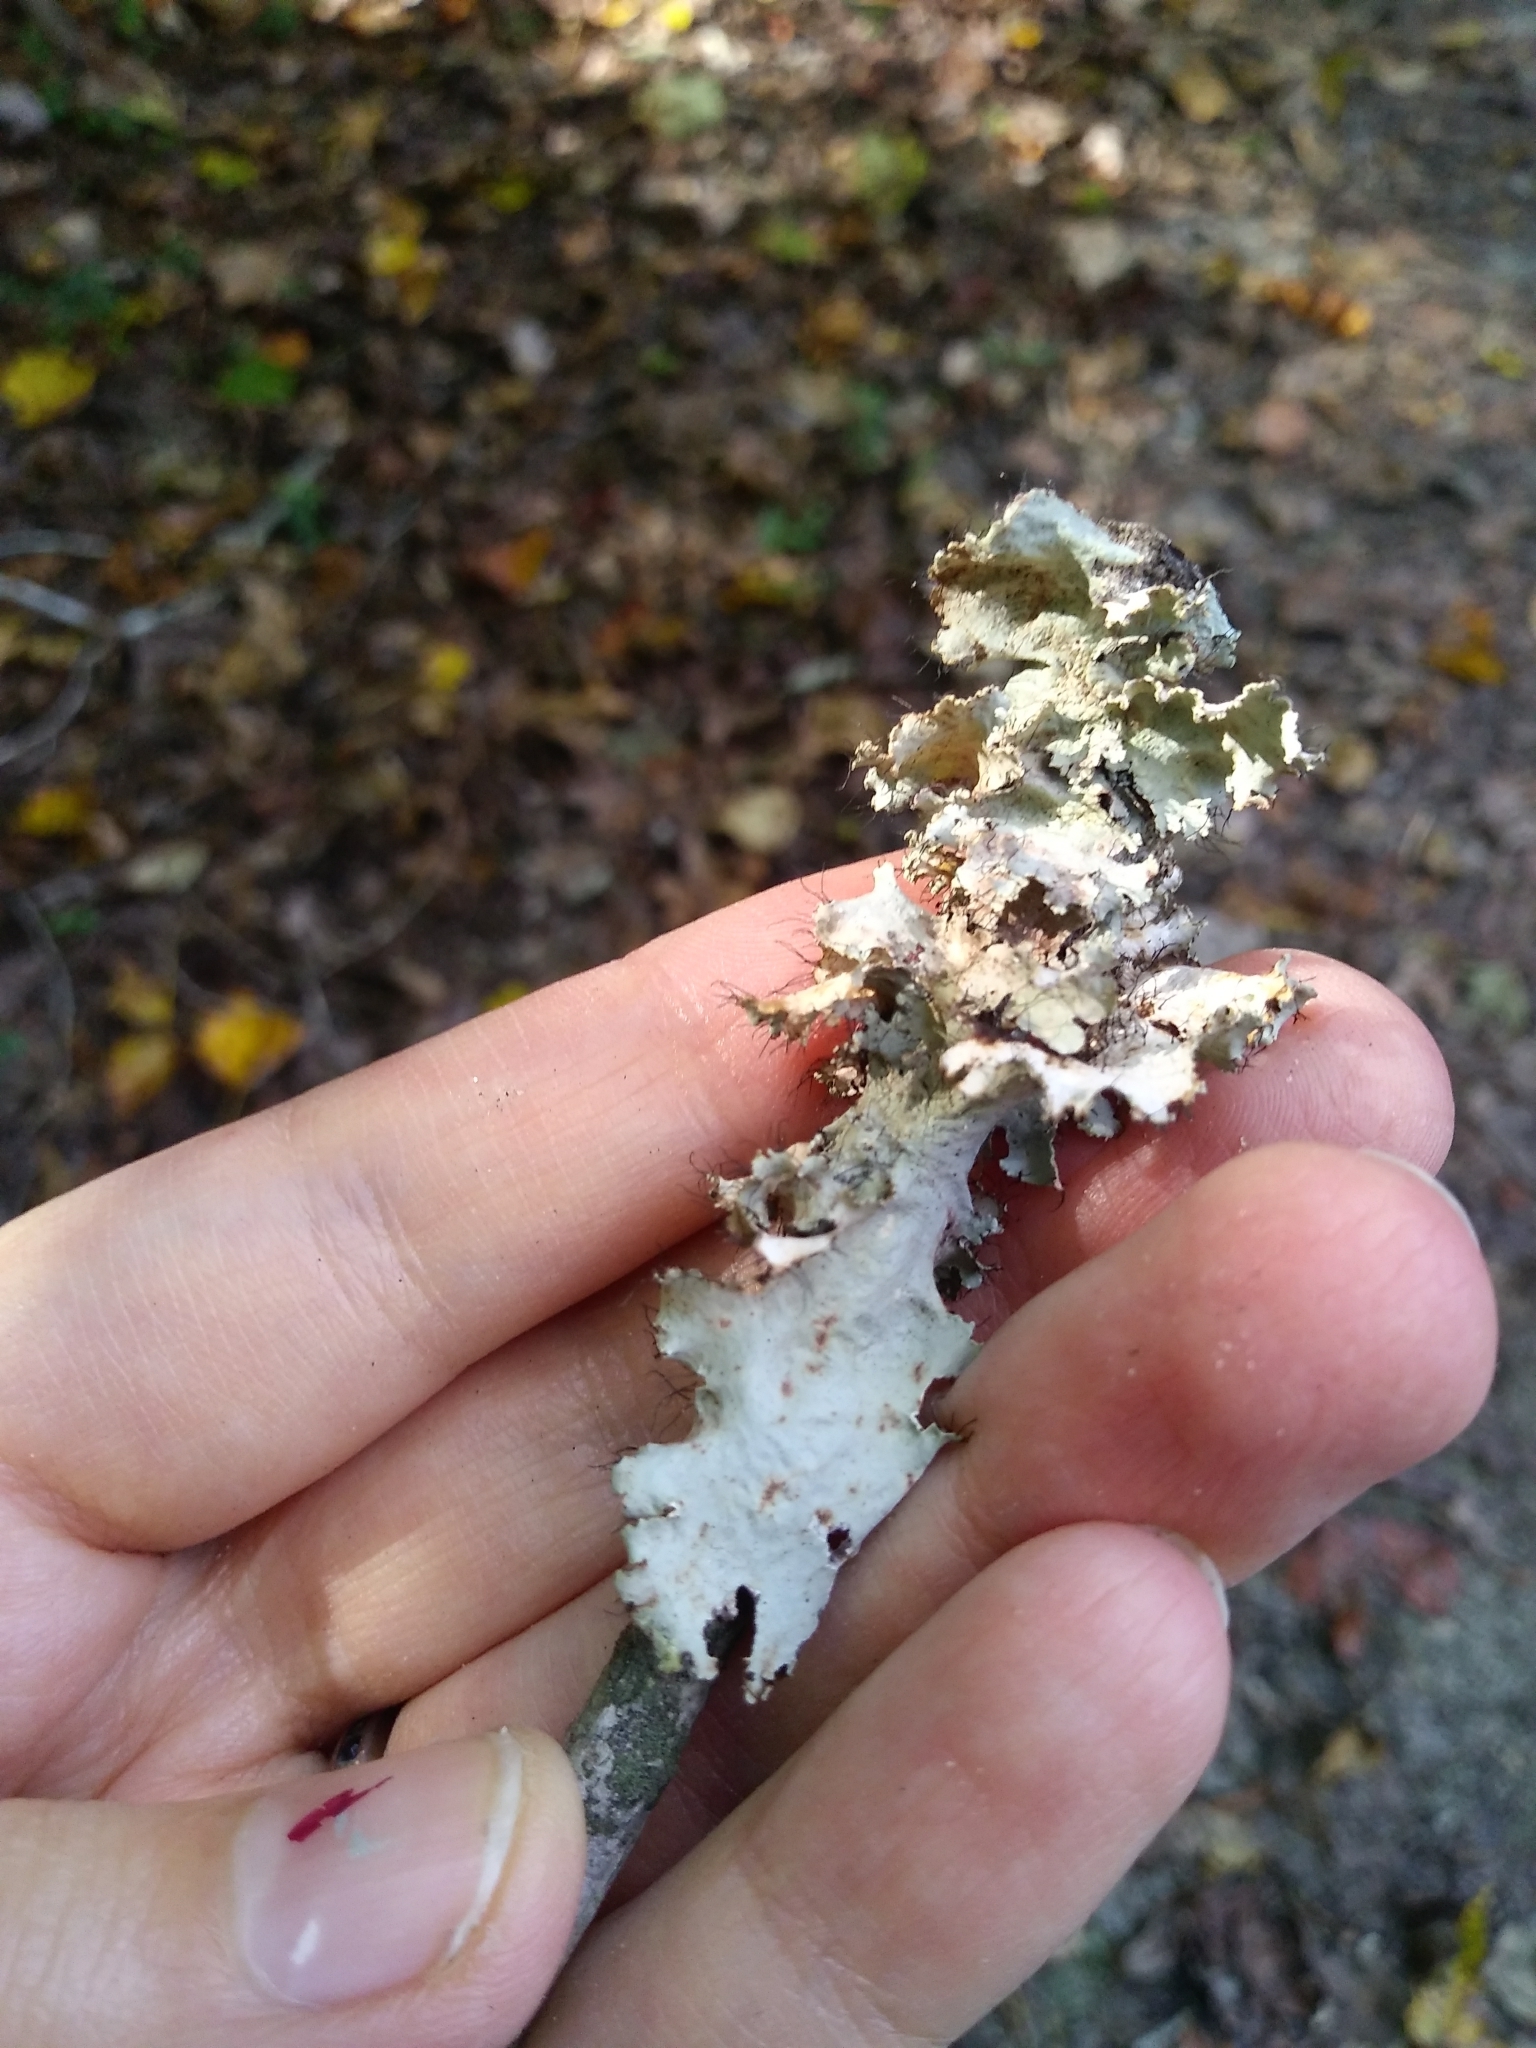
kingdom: Fungi
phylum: Ascomycota
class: Lecanoromycetes
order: Lecanorales
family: Parmeliaceae
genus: Parmotrema
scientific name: Parmotrema hypotropum
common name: Powdered ruffle lichen
